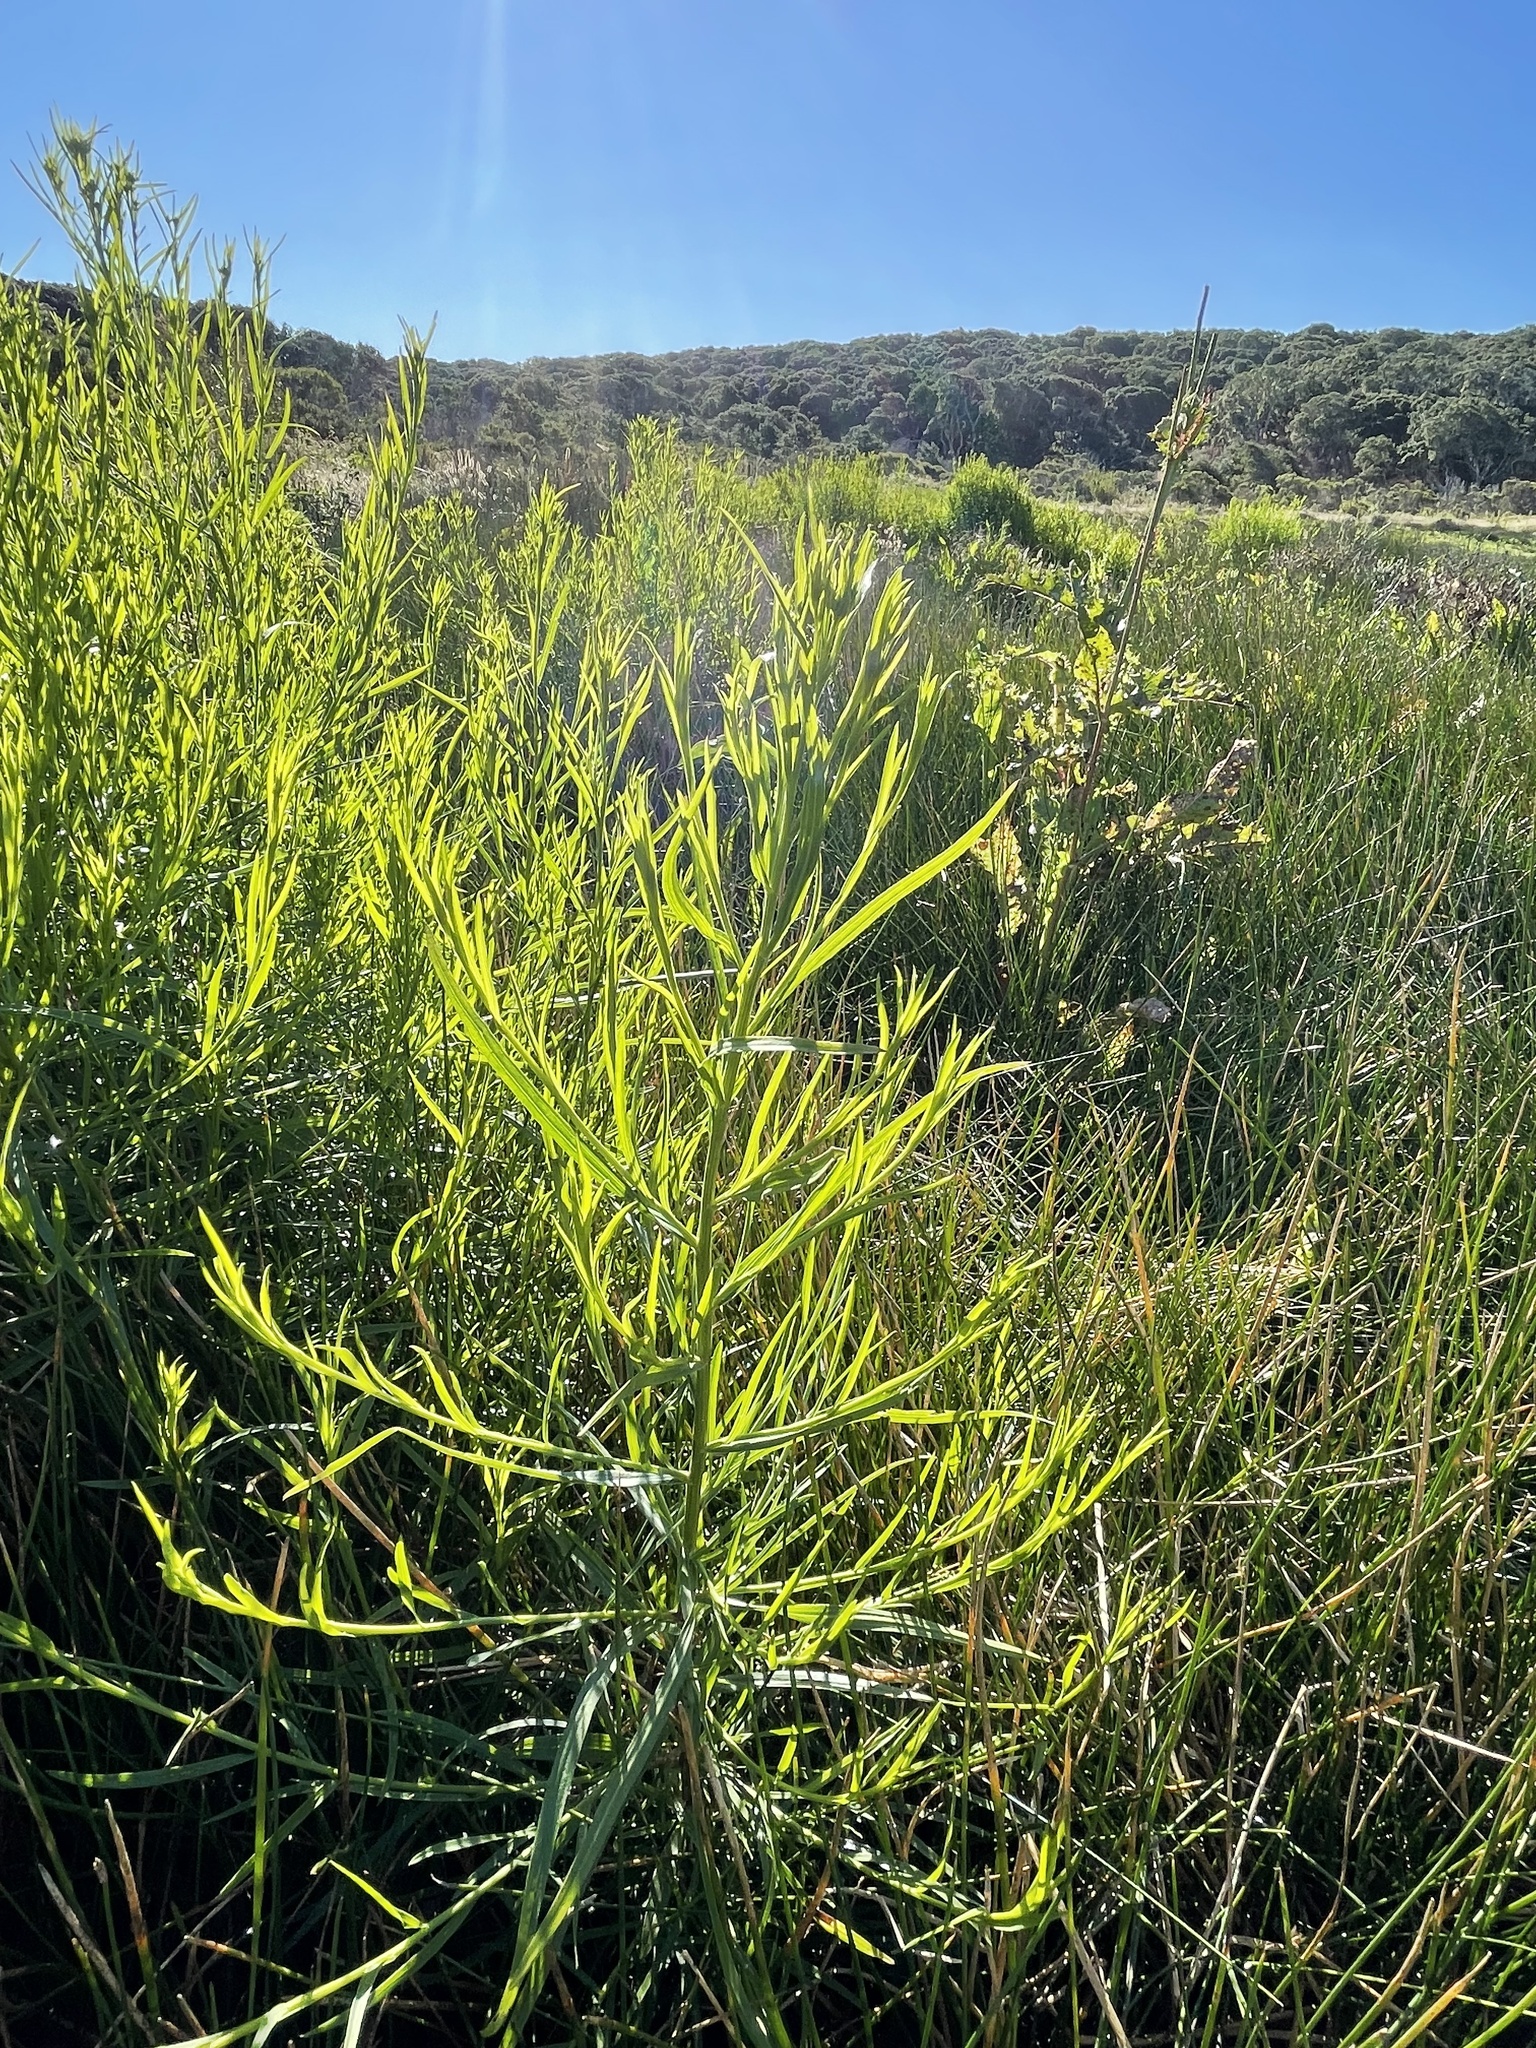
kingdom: Plantae
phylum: Tracheophyta
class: Magnoliopsida
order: Asterales
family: Asteraceae
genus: Euthamia
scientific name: Euthamia occidentalis
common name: Western goldentop
